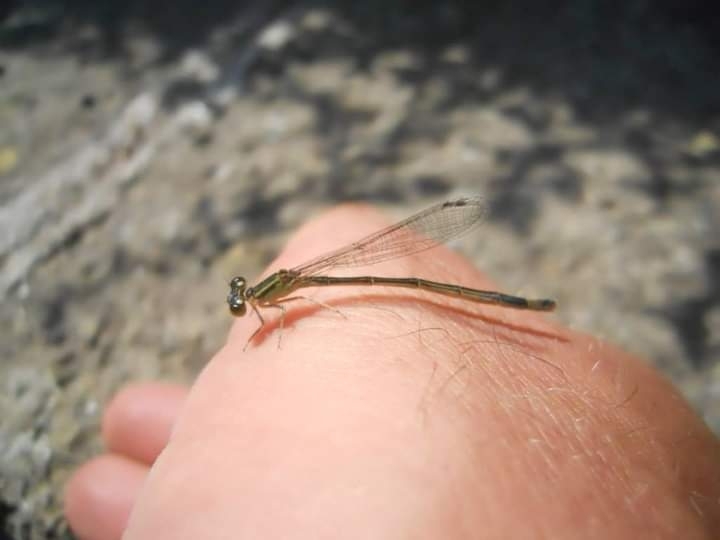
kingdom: Animalia
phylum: Arthropoda
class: Insecta
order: Odonata
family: Coenagrionidae
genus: Ischnura
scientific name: Ischnura elegans
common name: Blue-tailed damselfly
